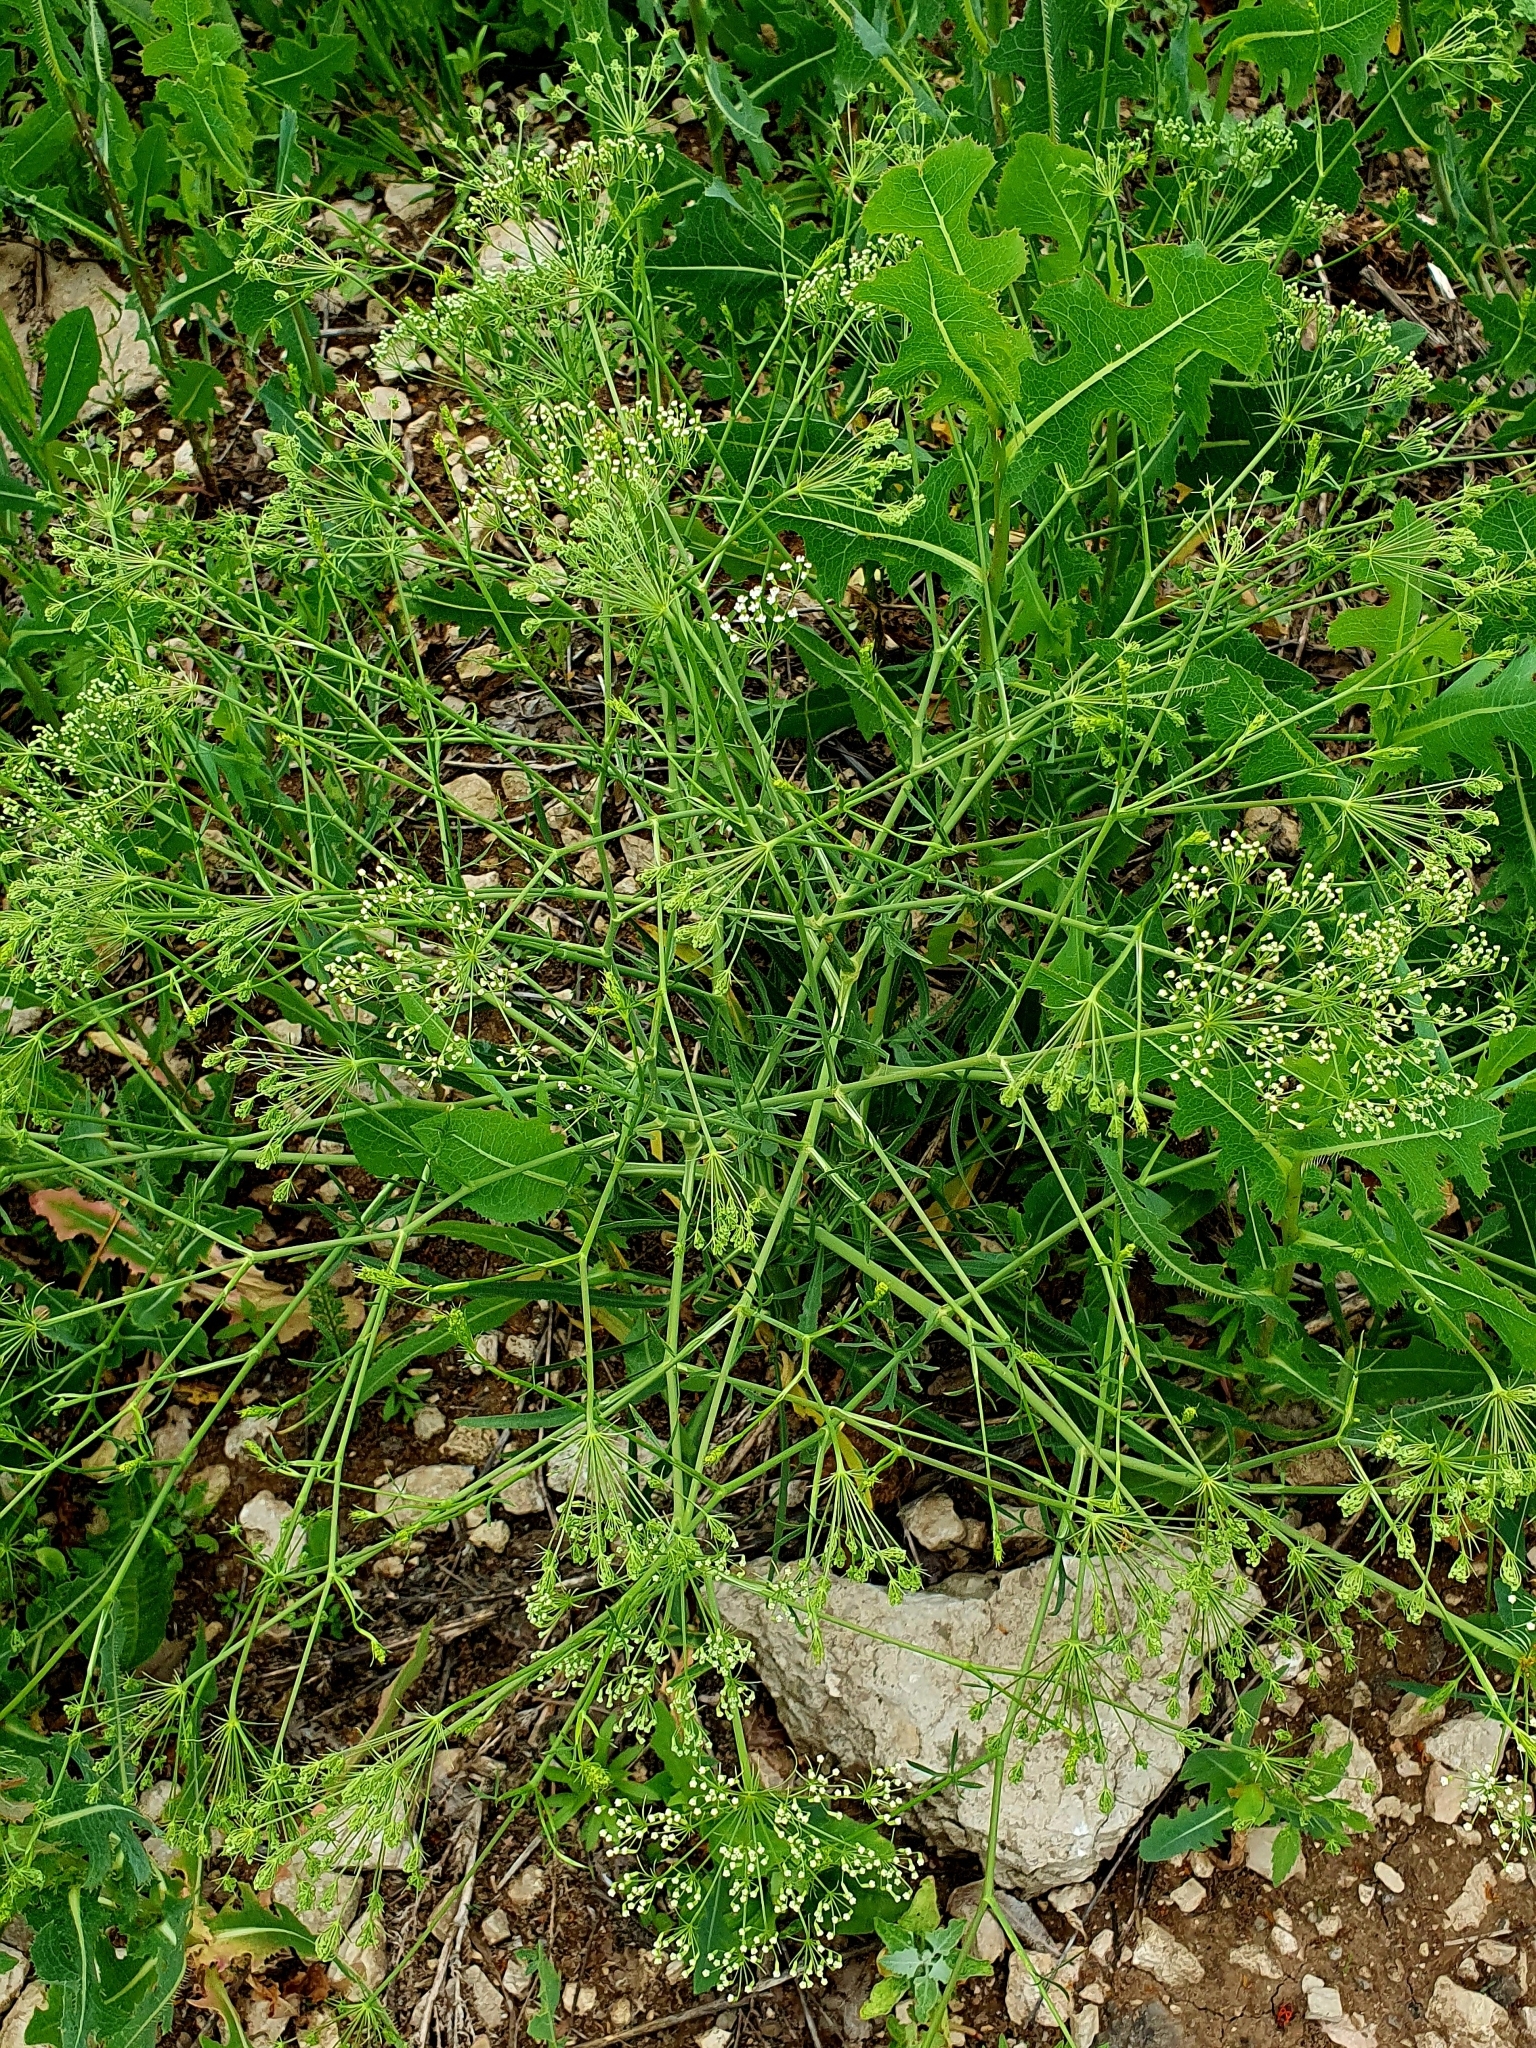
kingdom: Plantae
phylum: Tracheophyta
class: Magnoliopsida
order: Apiales
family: Apiaceae
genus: Falcaria
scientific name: Falcaria vulgaris
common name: Longleaf
